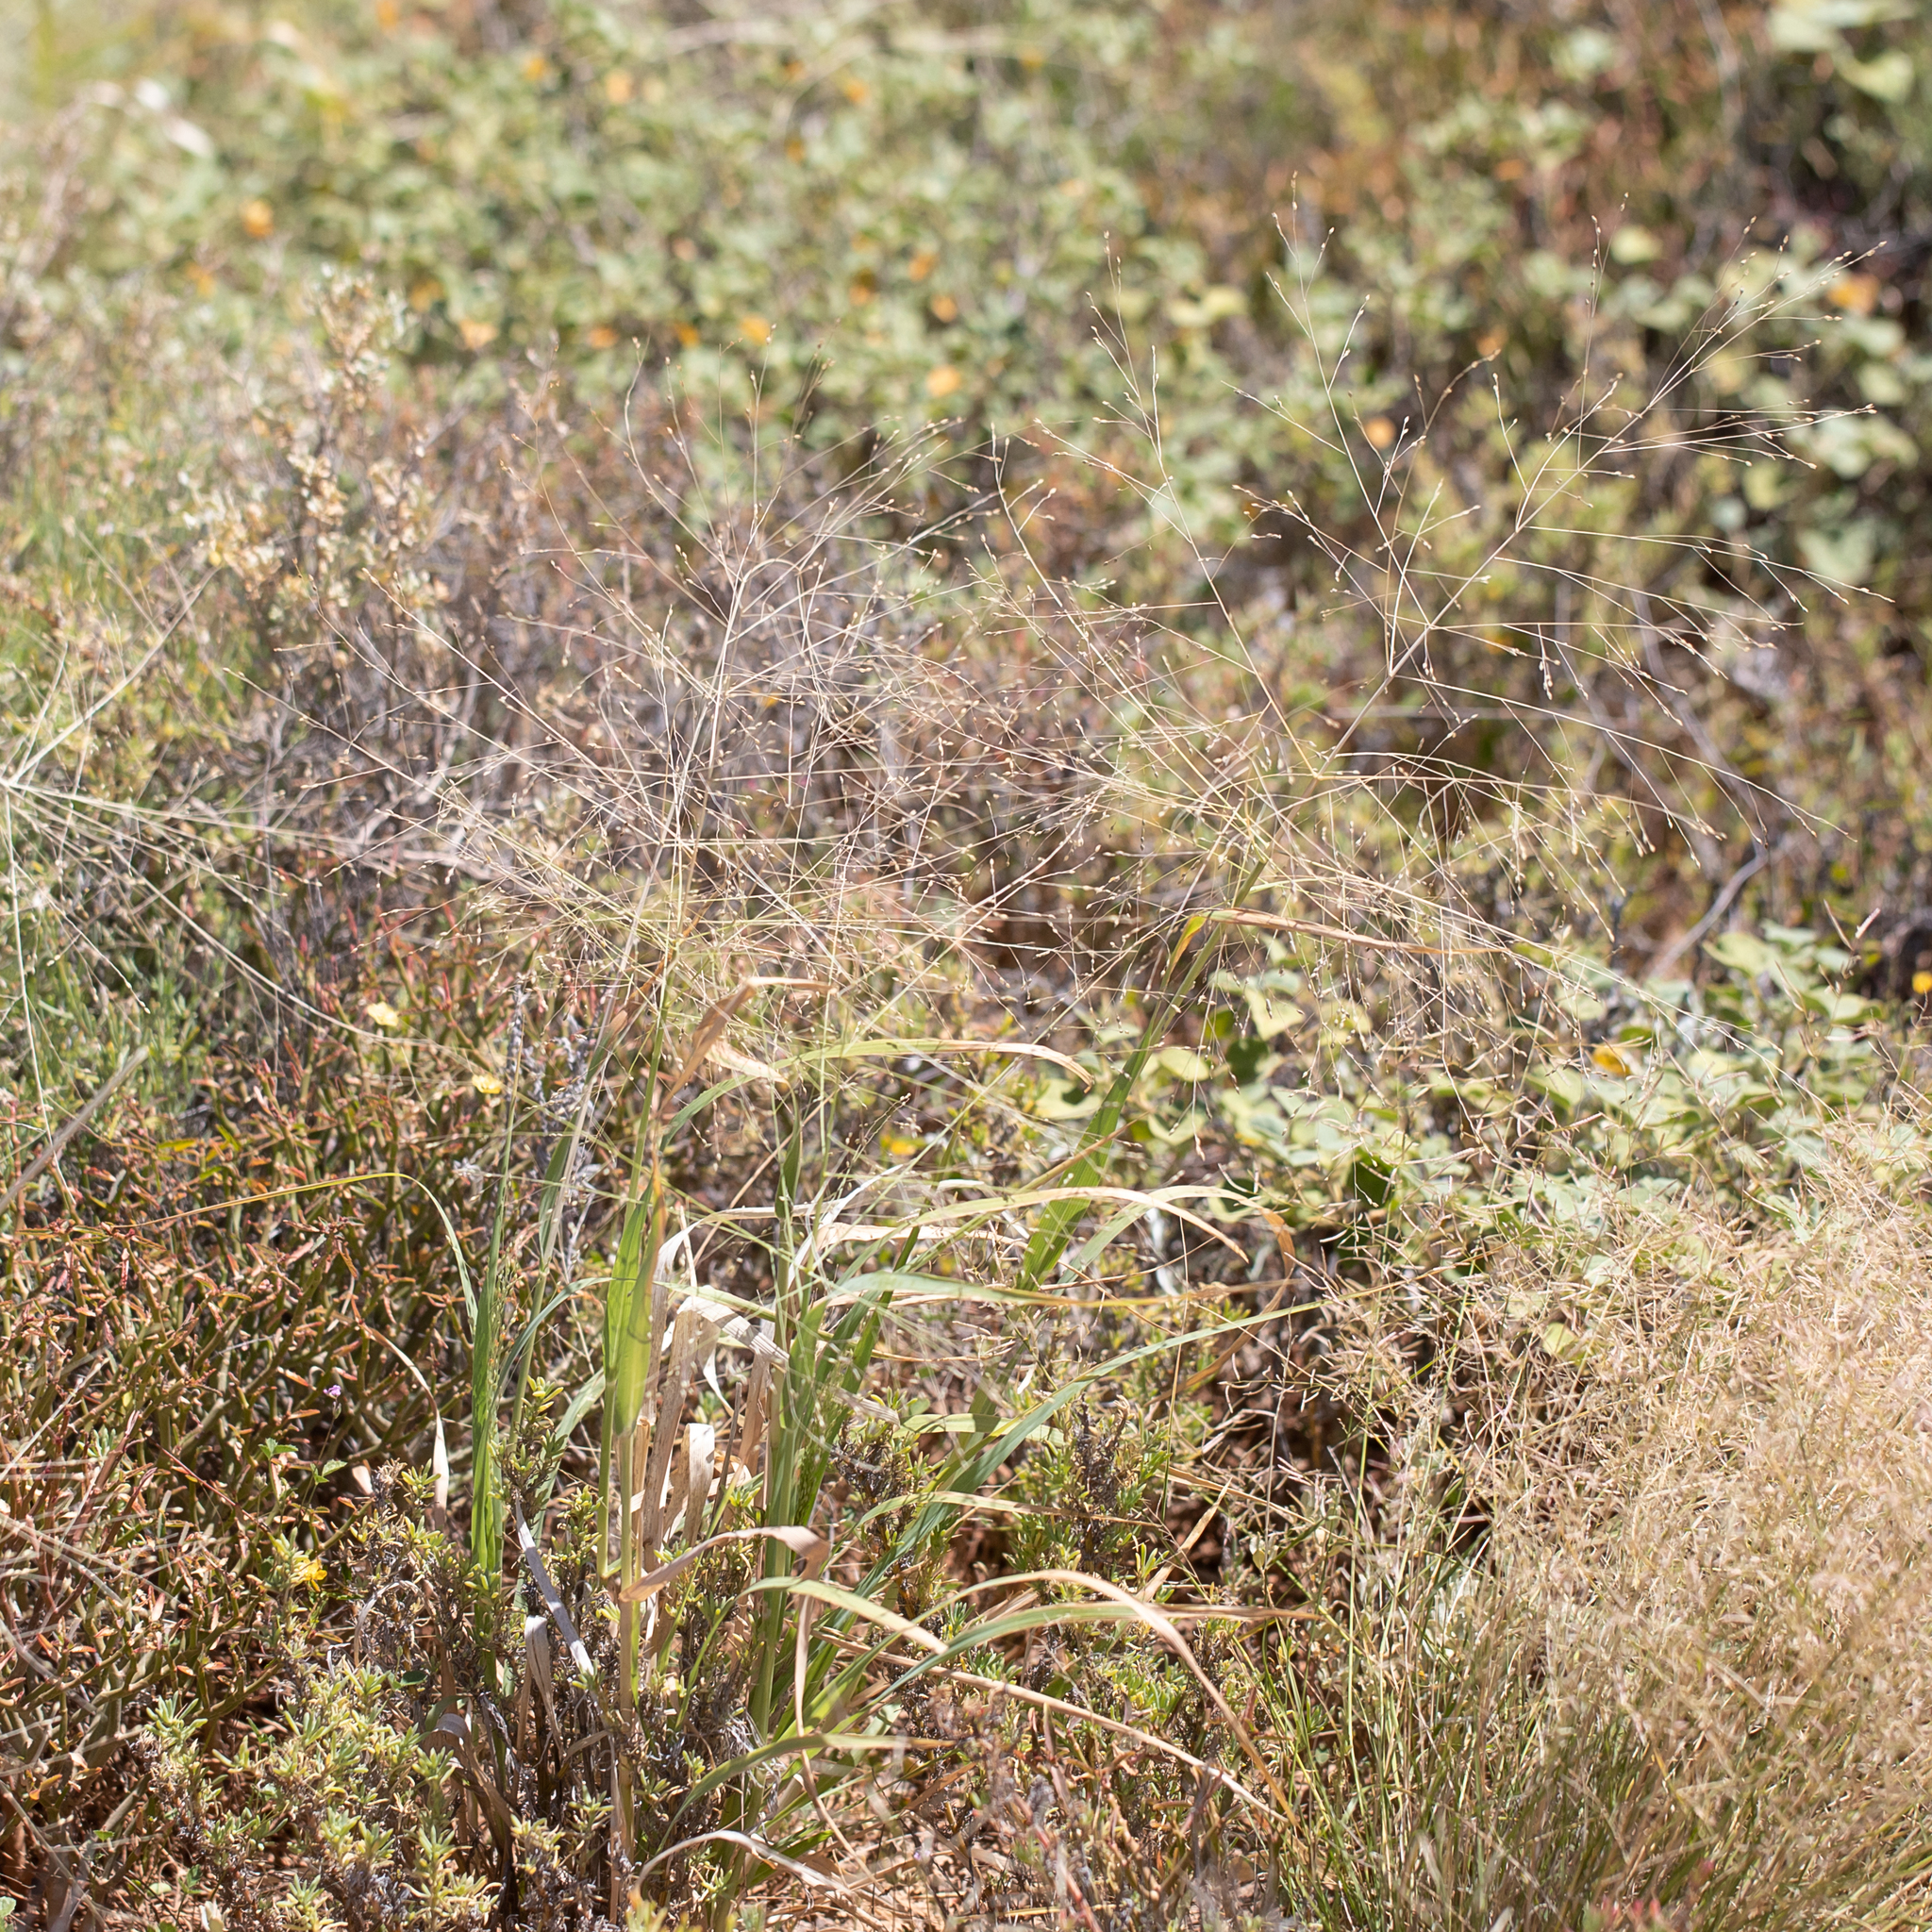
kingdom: Plantae
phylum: Tracheophyta
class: Liliopsida
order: Poales
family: Poaceae
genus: Panicum
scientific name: Panicum decompositum
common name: Australian millet
